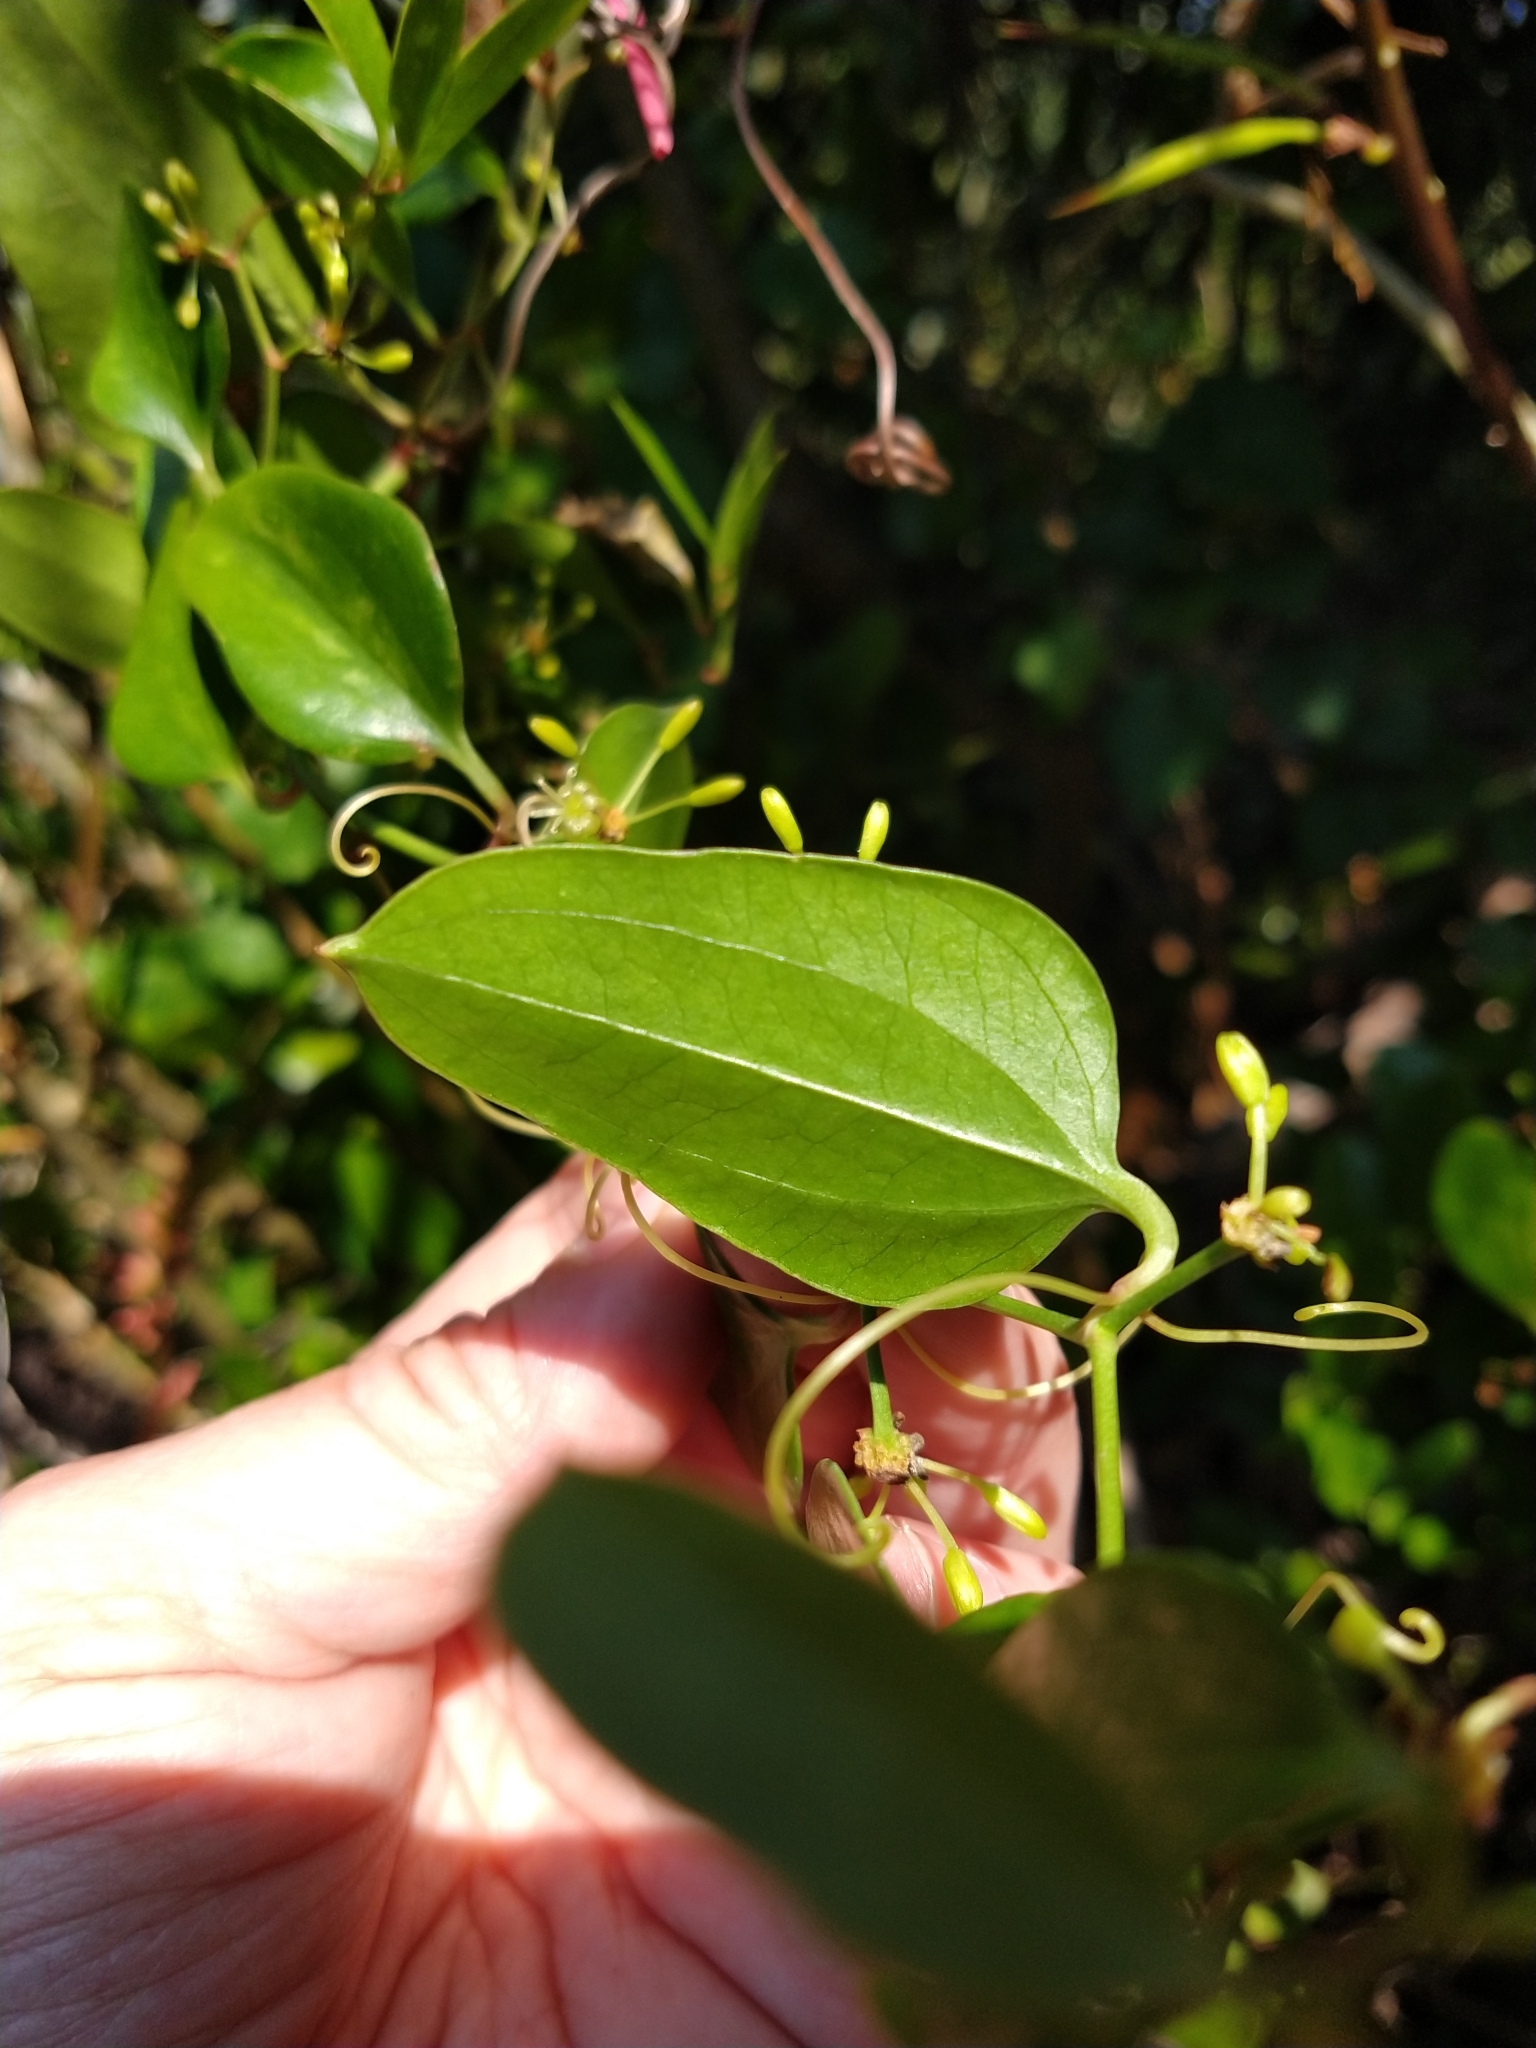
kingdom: Plantae
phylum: Tracheophyta
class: Liliopsida
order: Liliales
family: Smilacaceae
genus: Smilax
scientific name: Smilax auriculata
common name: Wild bamboo
